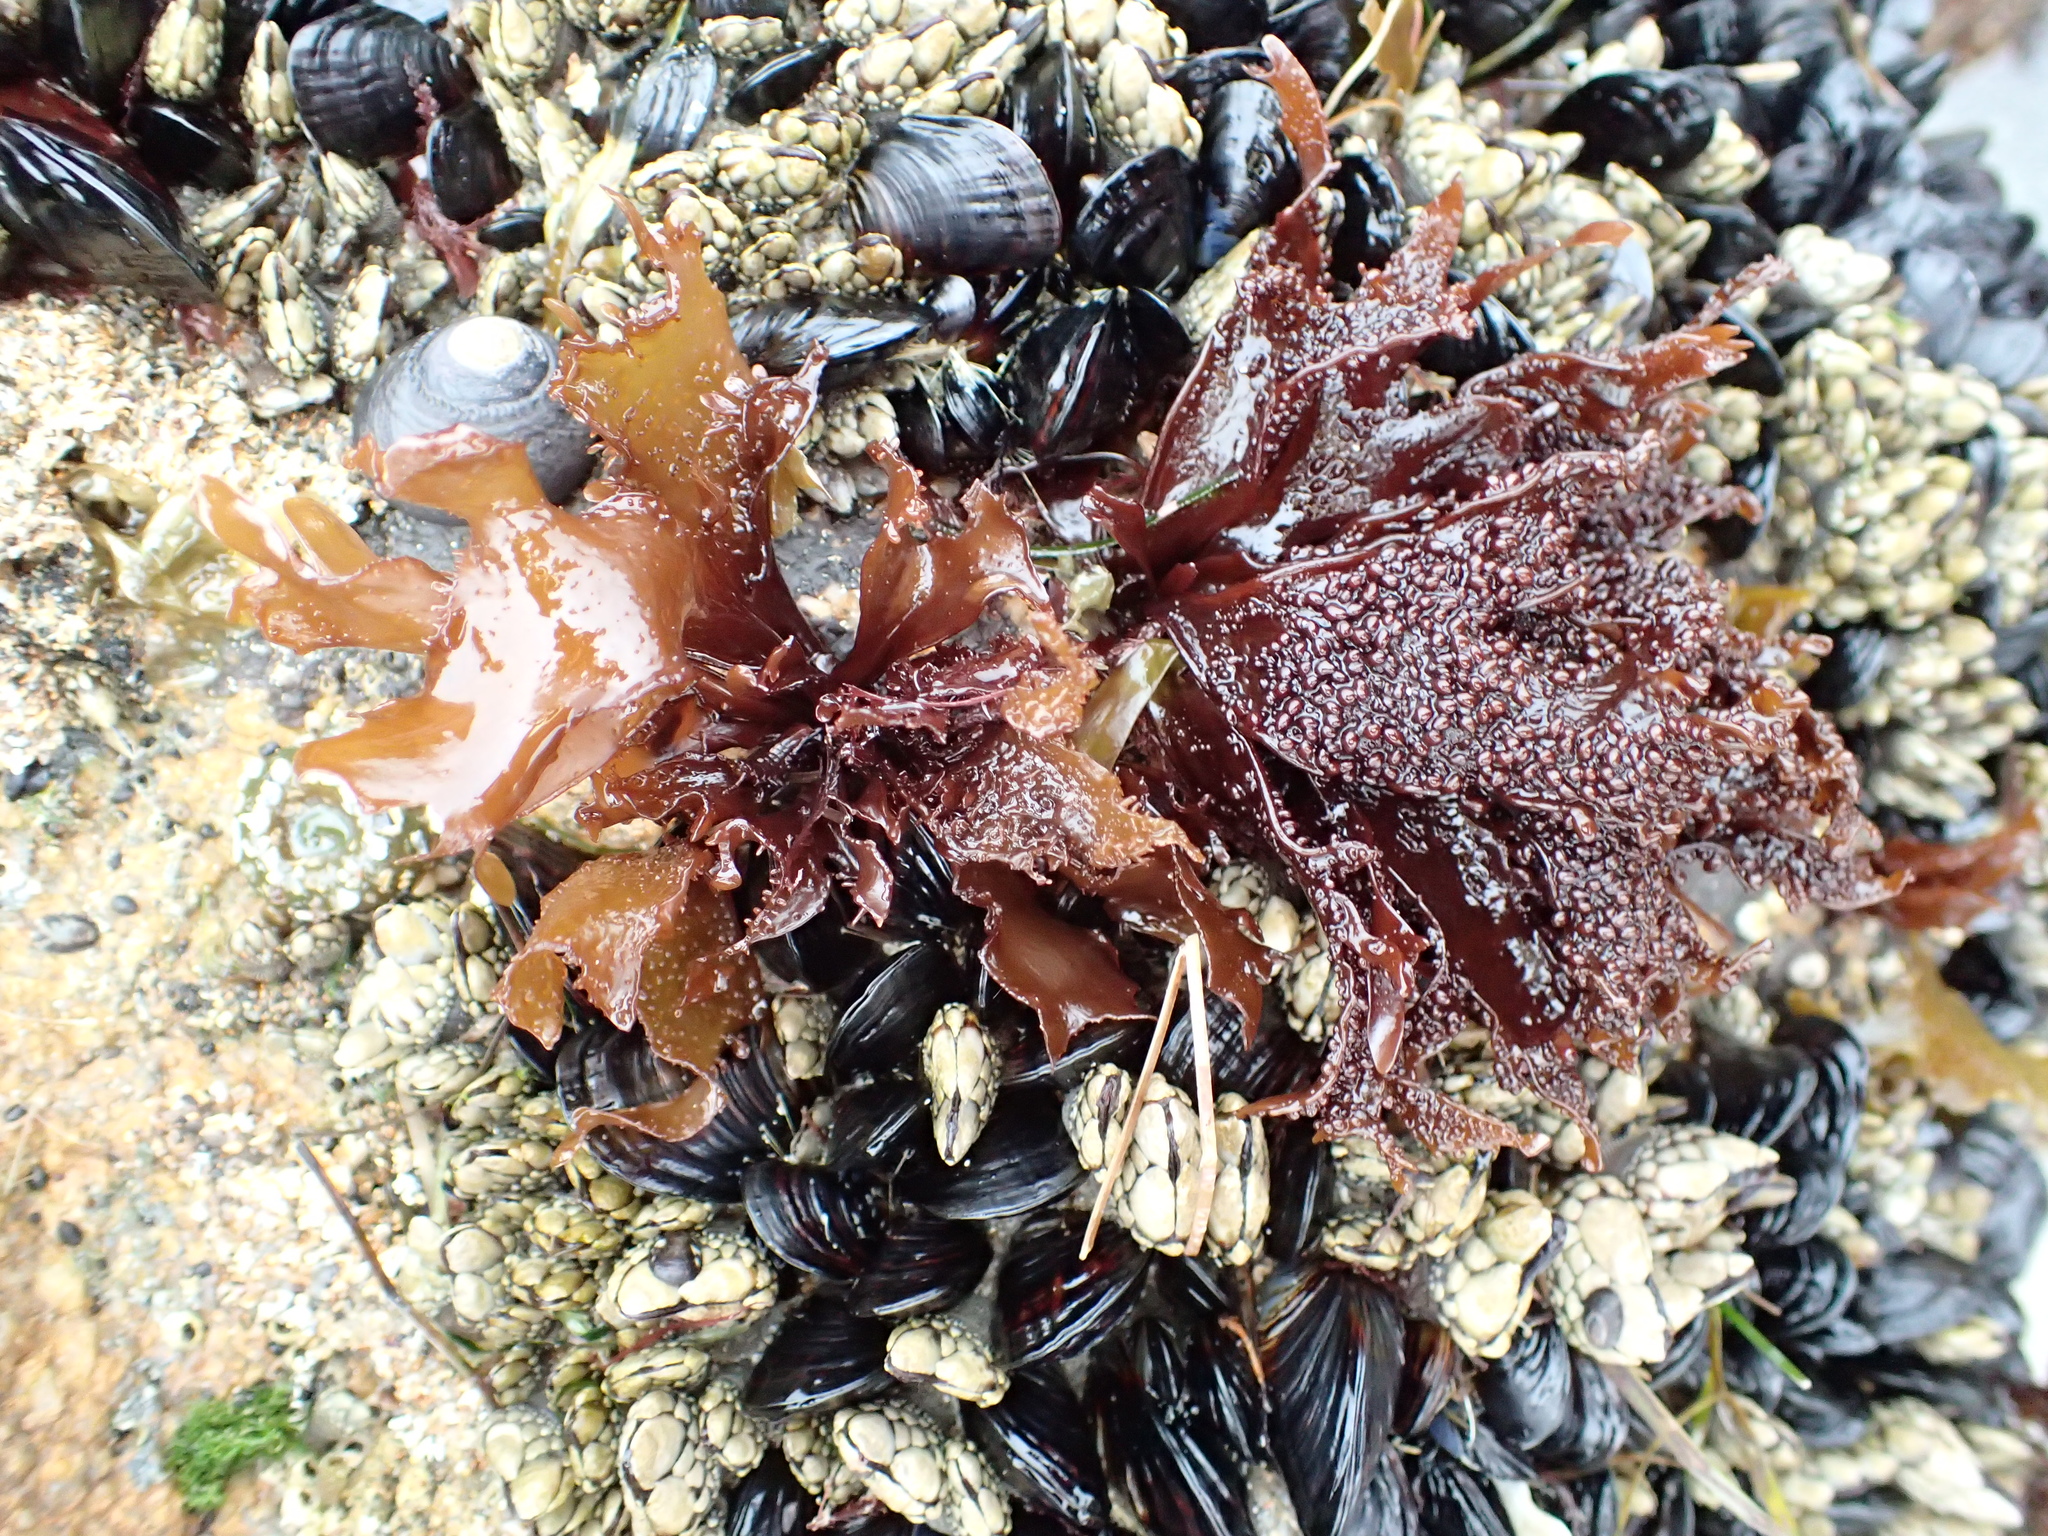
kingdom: Plantae
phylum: Rhodophyta
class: Florideophyceae
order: Gigartinales
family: Phyllophoraceae
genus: Mastocarpus
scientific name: Mastocarpus papillatus
